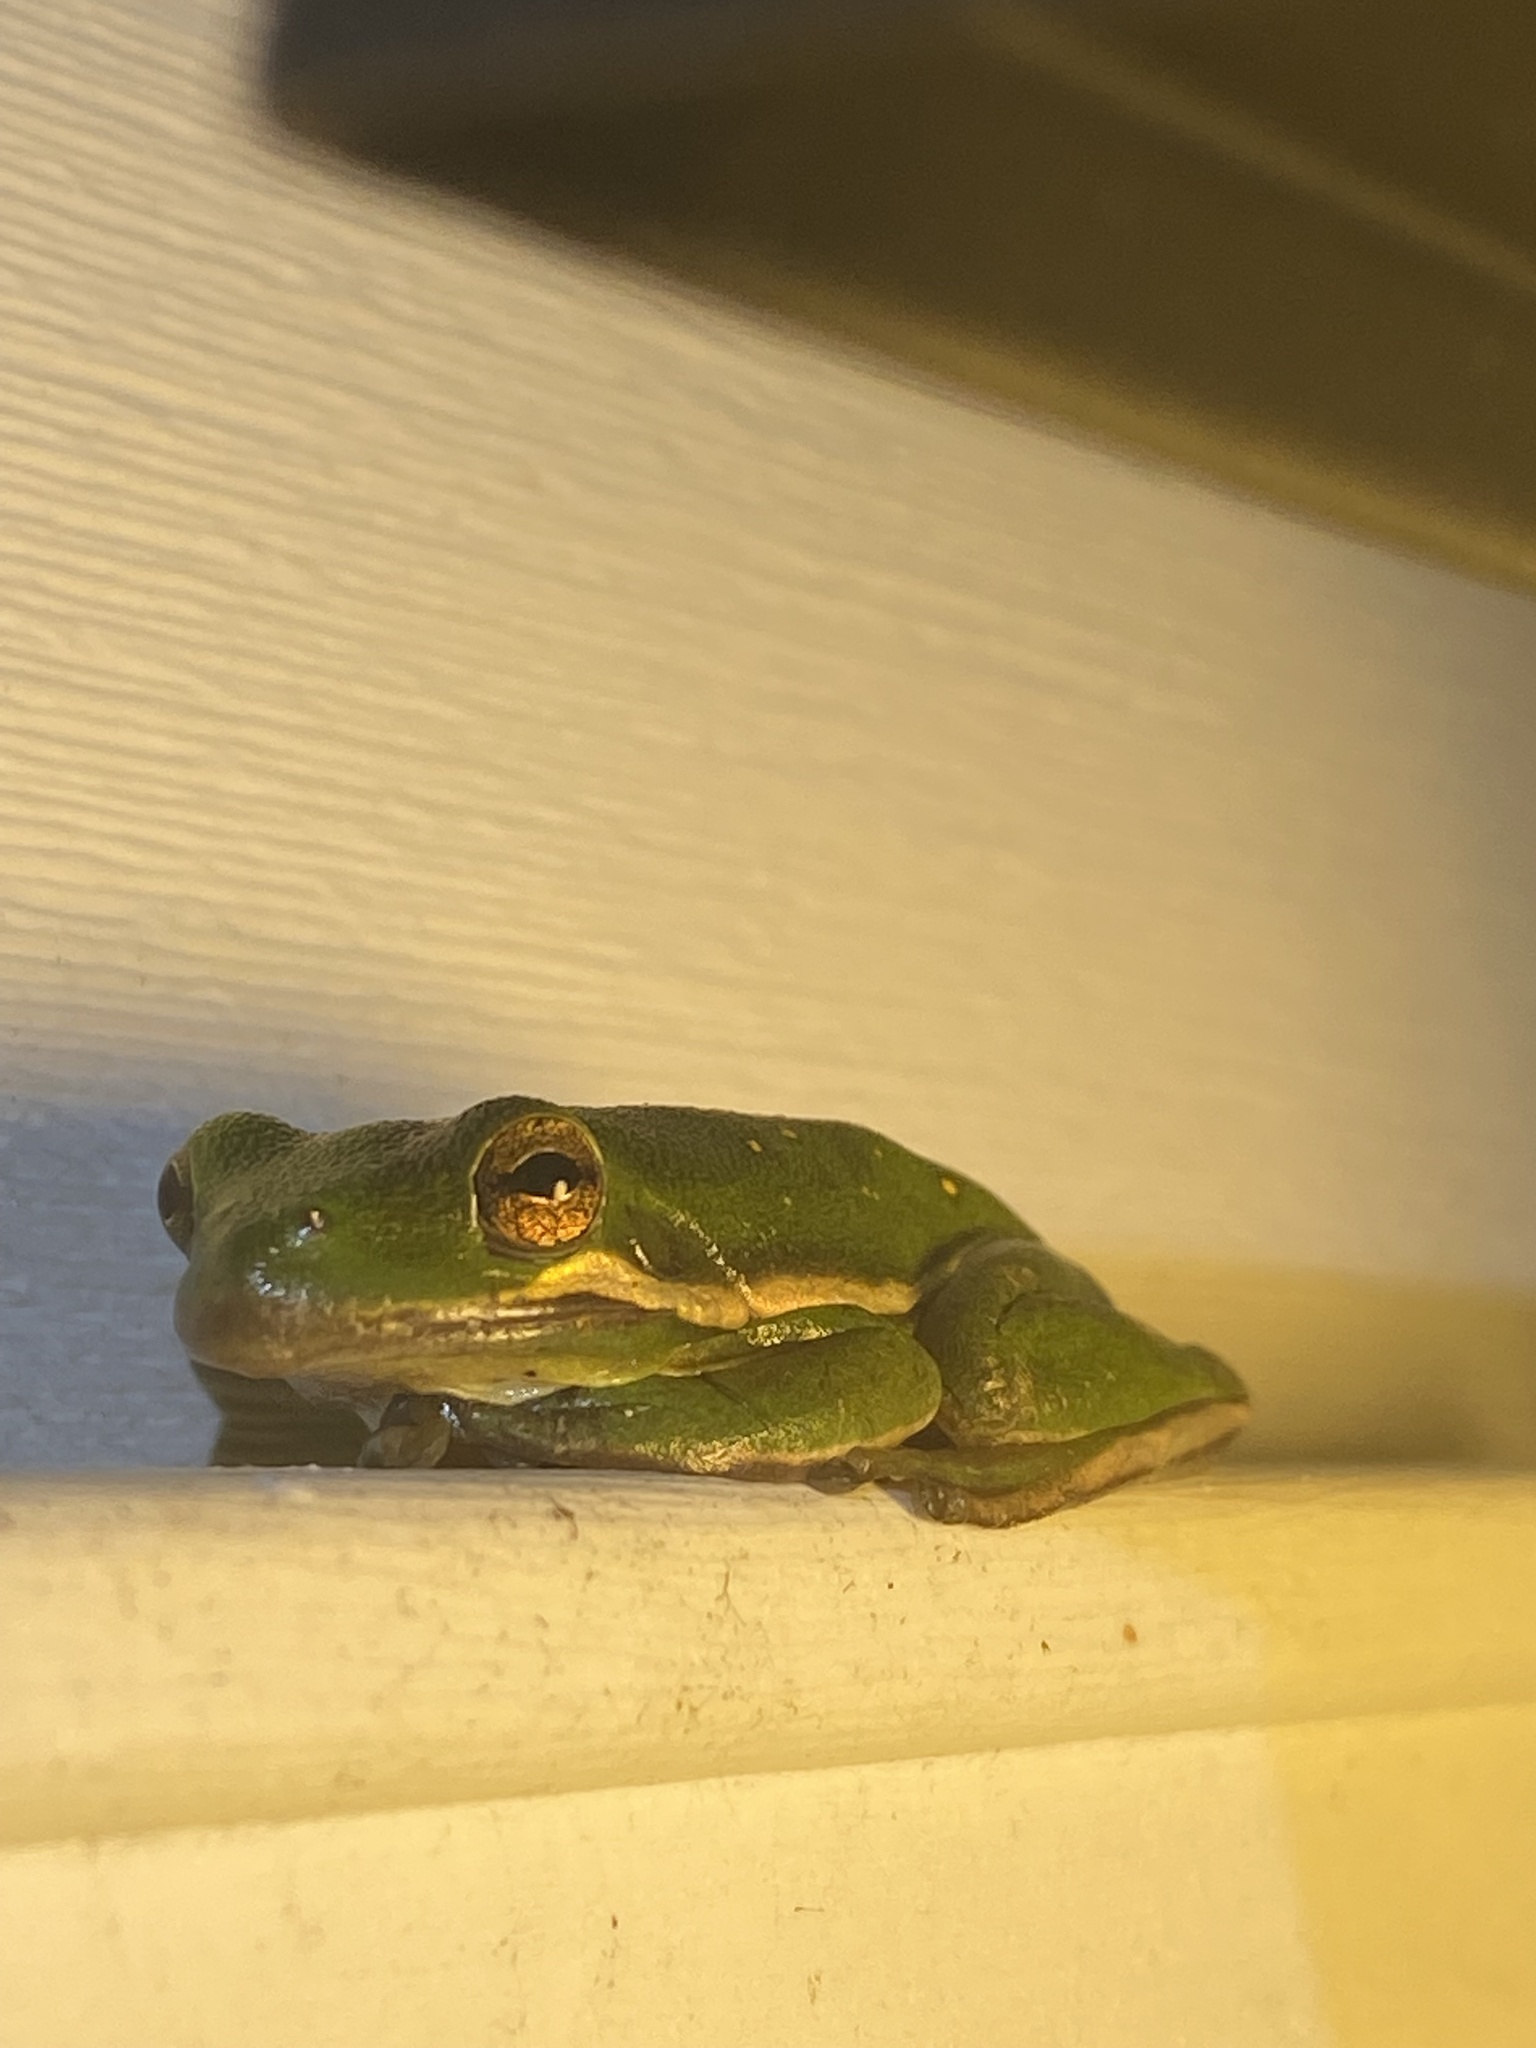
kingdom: Animalia
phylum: Chordata
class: Amphibia
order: Anura
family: Hylidae
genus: Dryophytes
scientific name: Dryophytes cinereus
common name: Green treefrog
